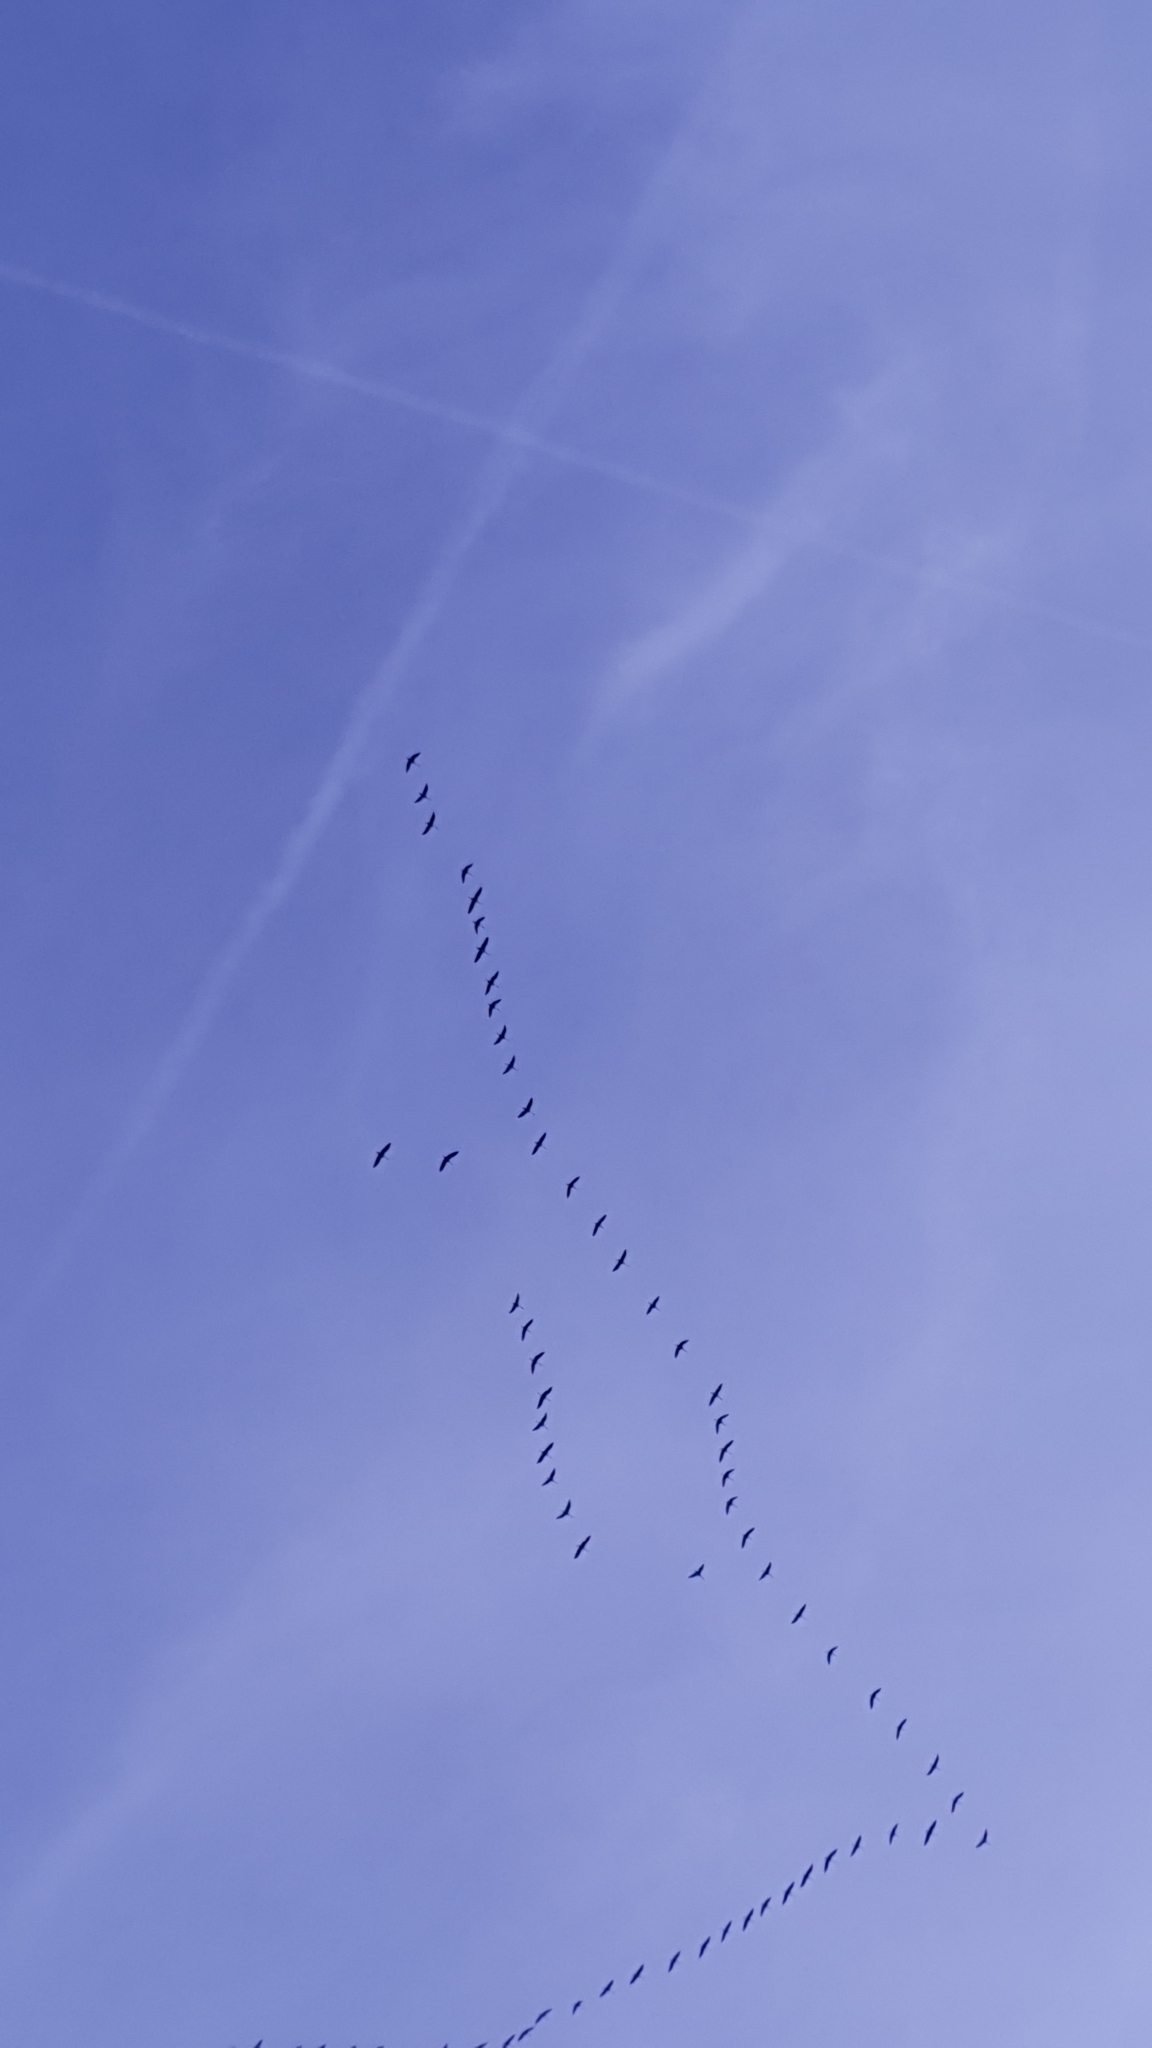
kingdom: Animalia
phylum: Chordata
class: Aves
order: Gruiformes
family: Gruidae
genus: Grus
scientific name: Grus grus
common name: Common crane
